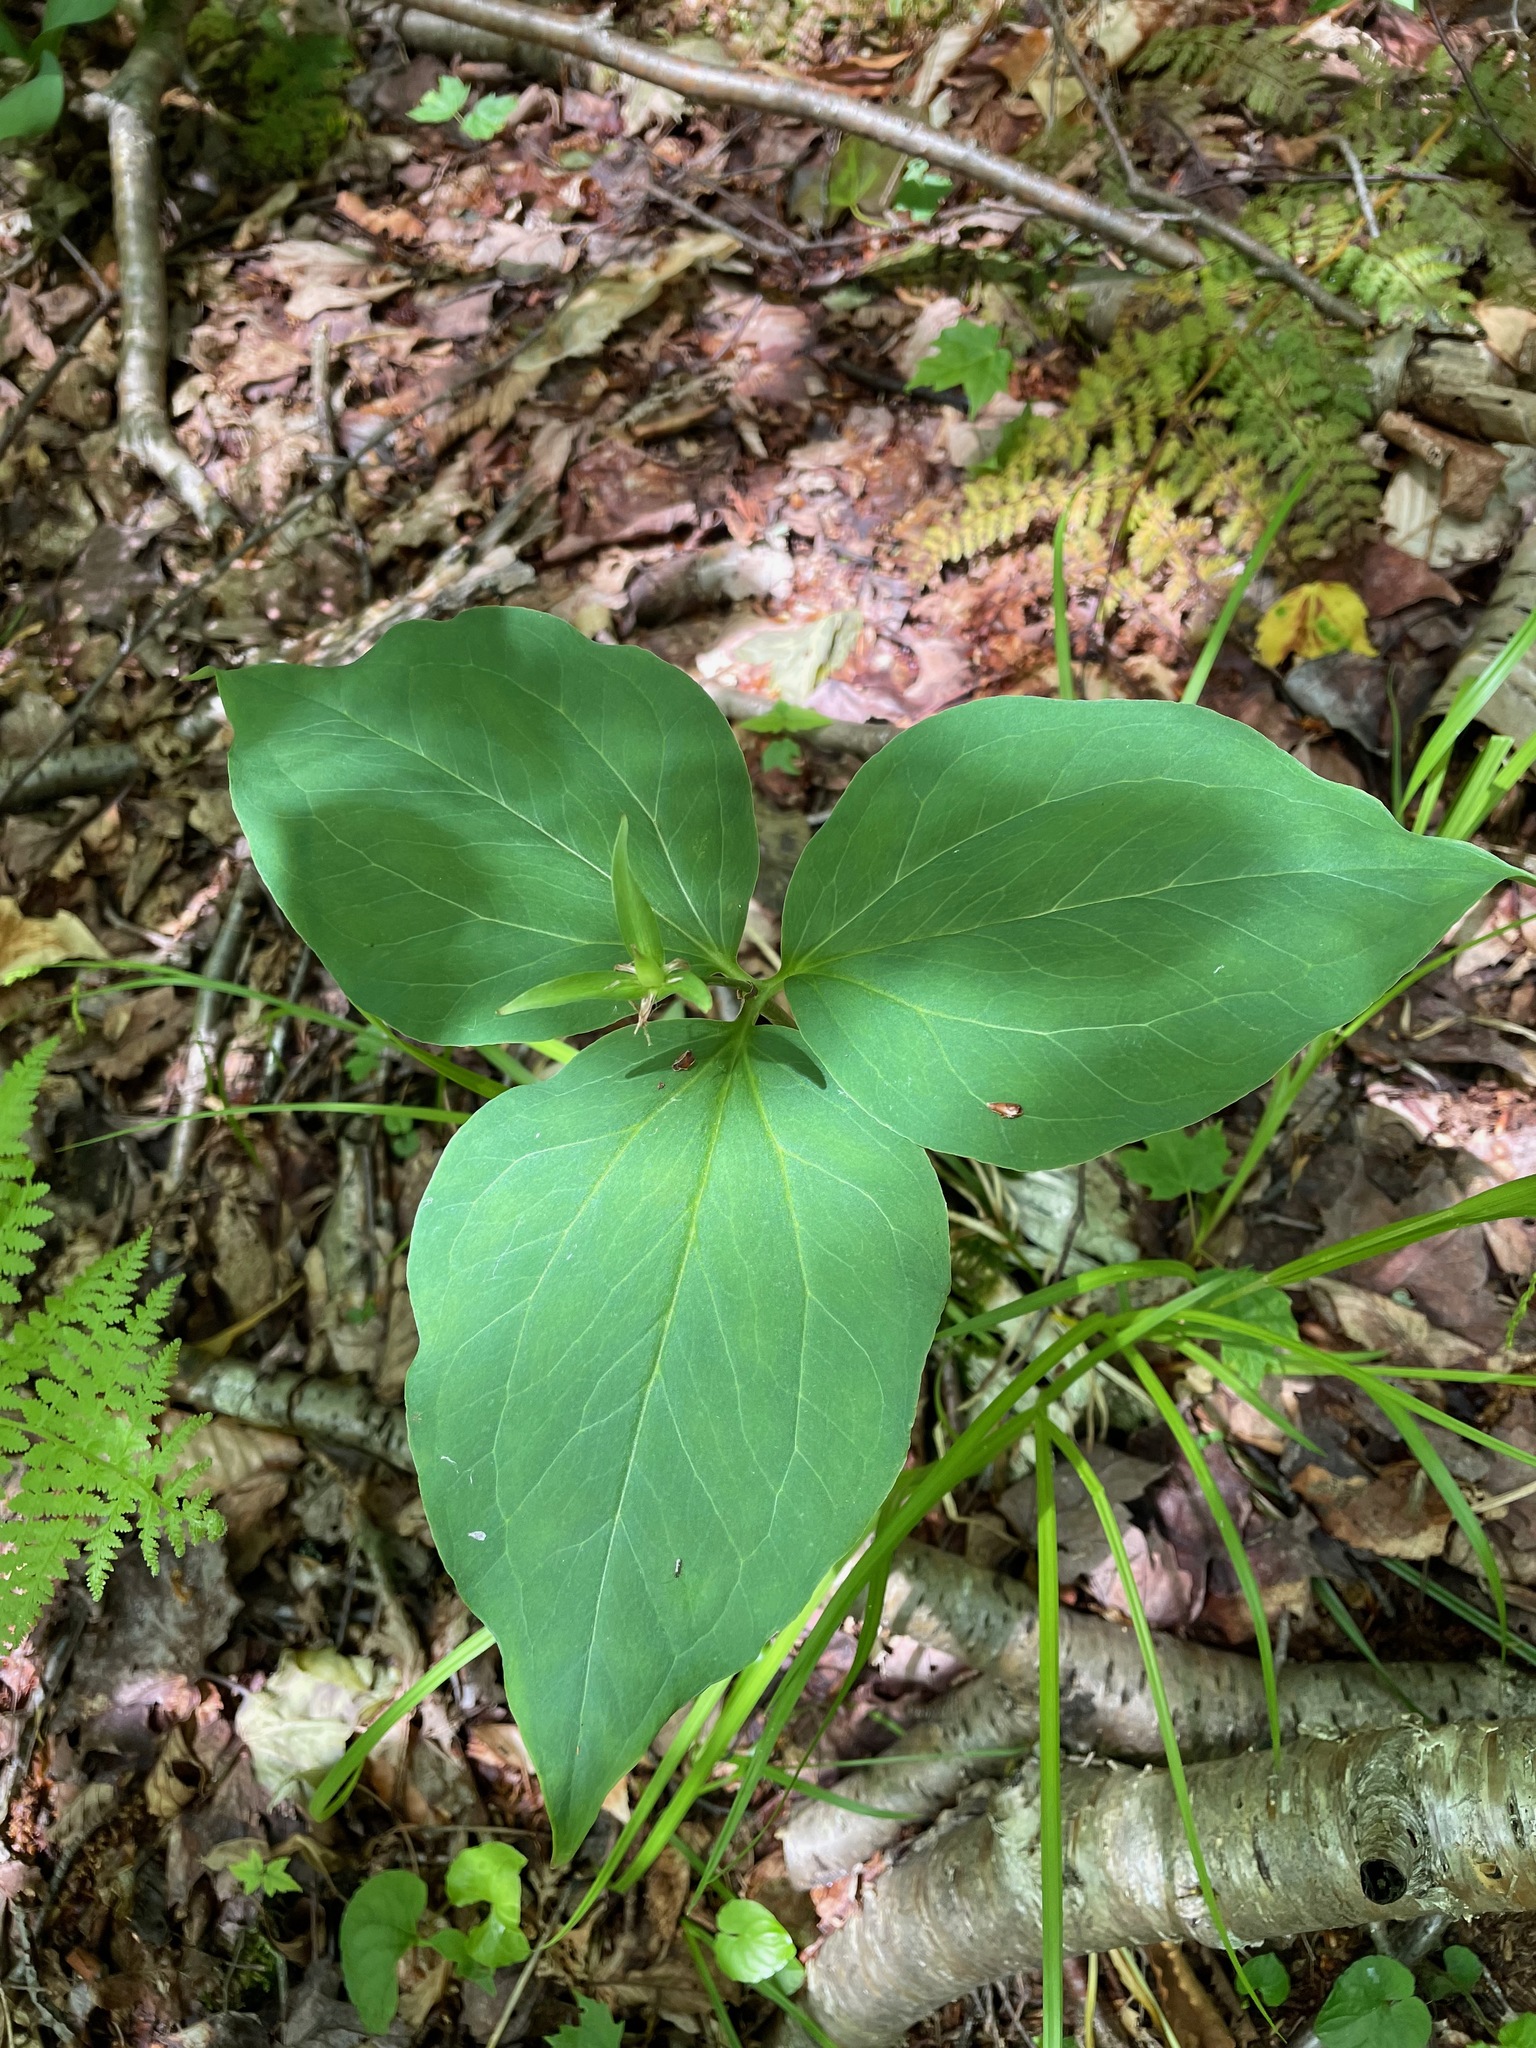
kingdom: Plantae
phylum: Tracheophyta
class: Liliopsida
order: Liliales
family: Melanthiaceae
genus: Trillium
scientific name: Trillium undulatum
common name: Paint trillium
